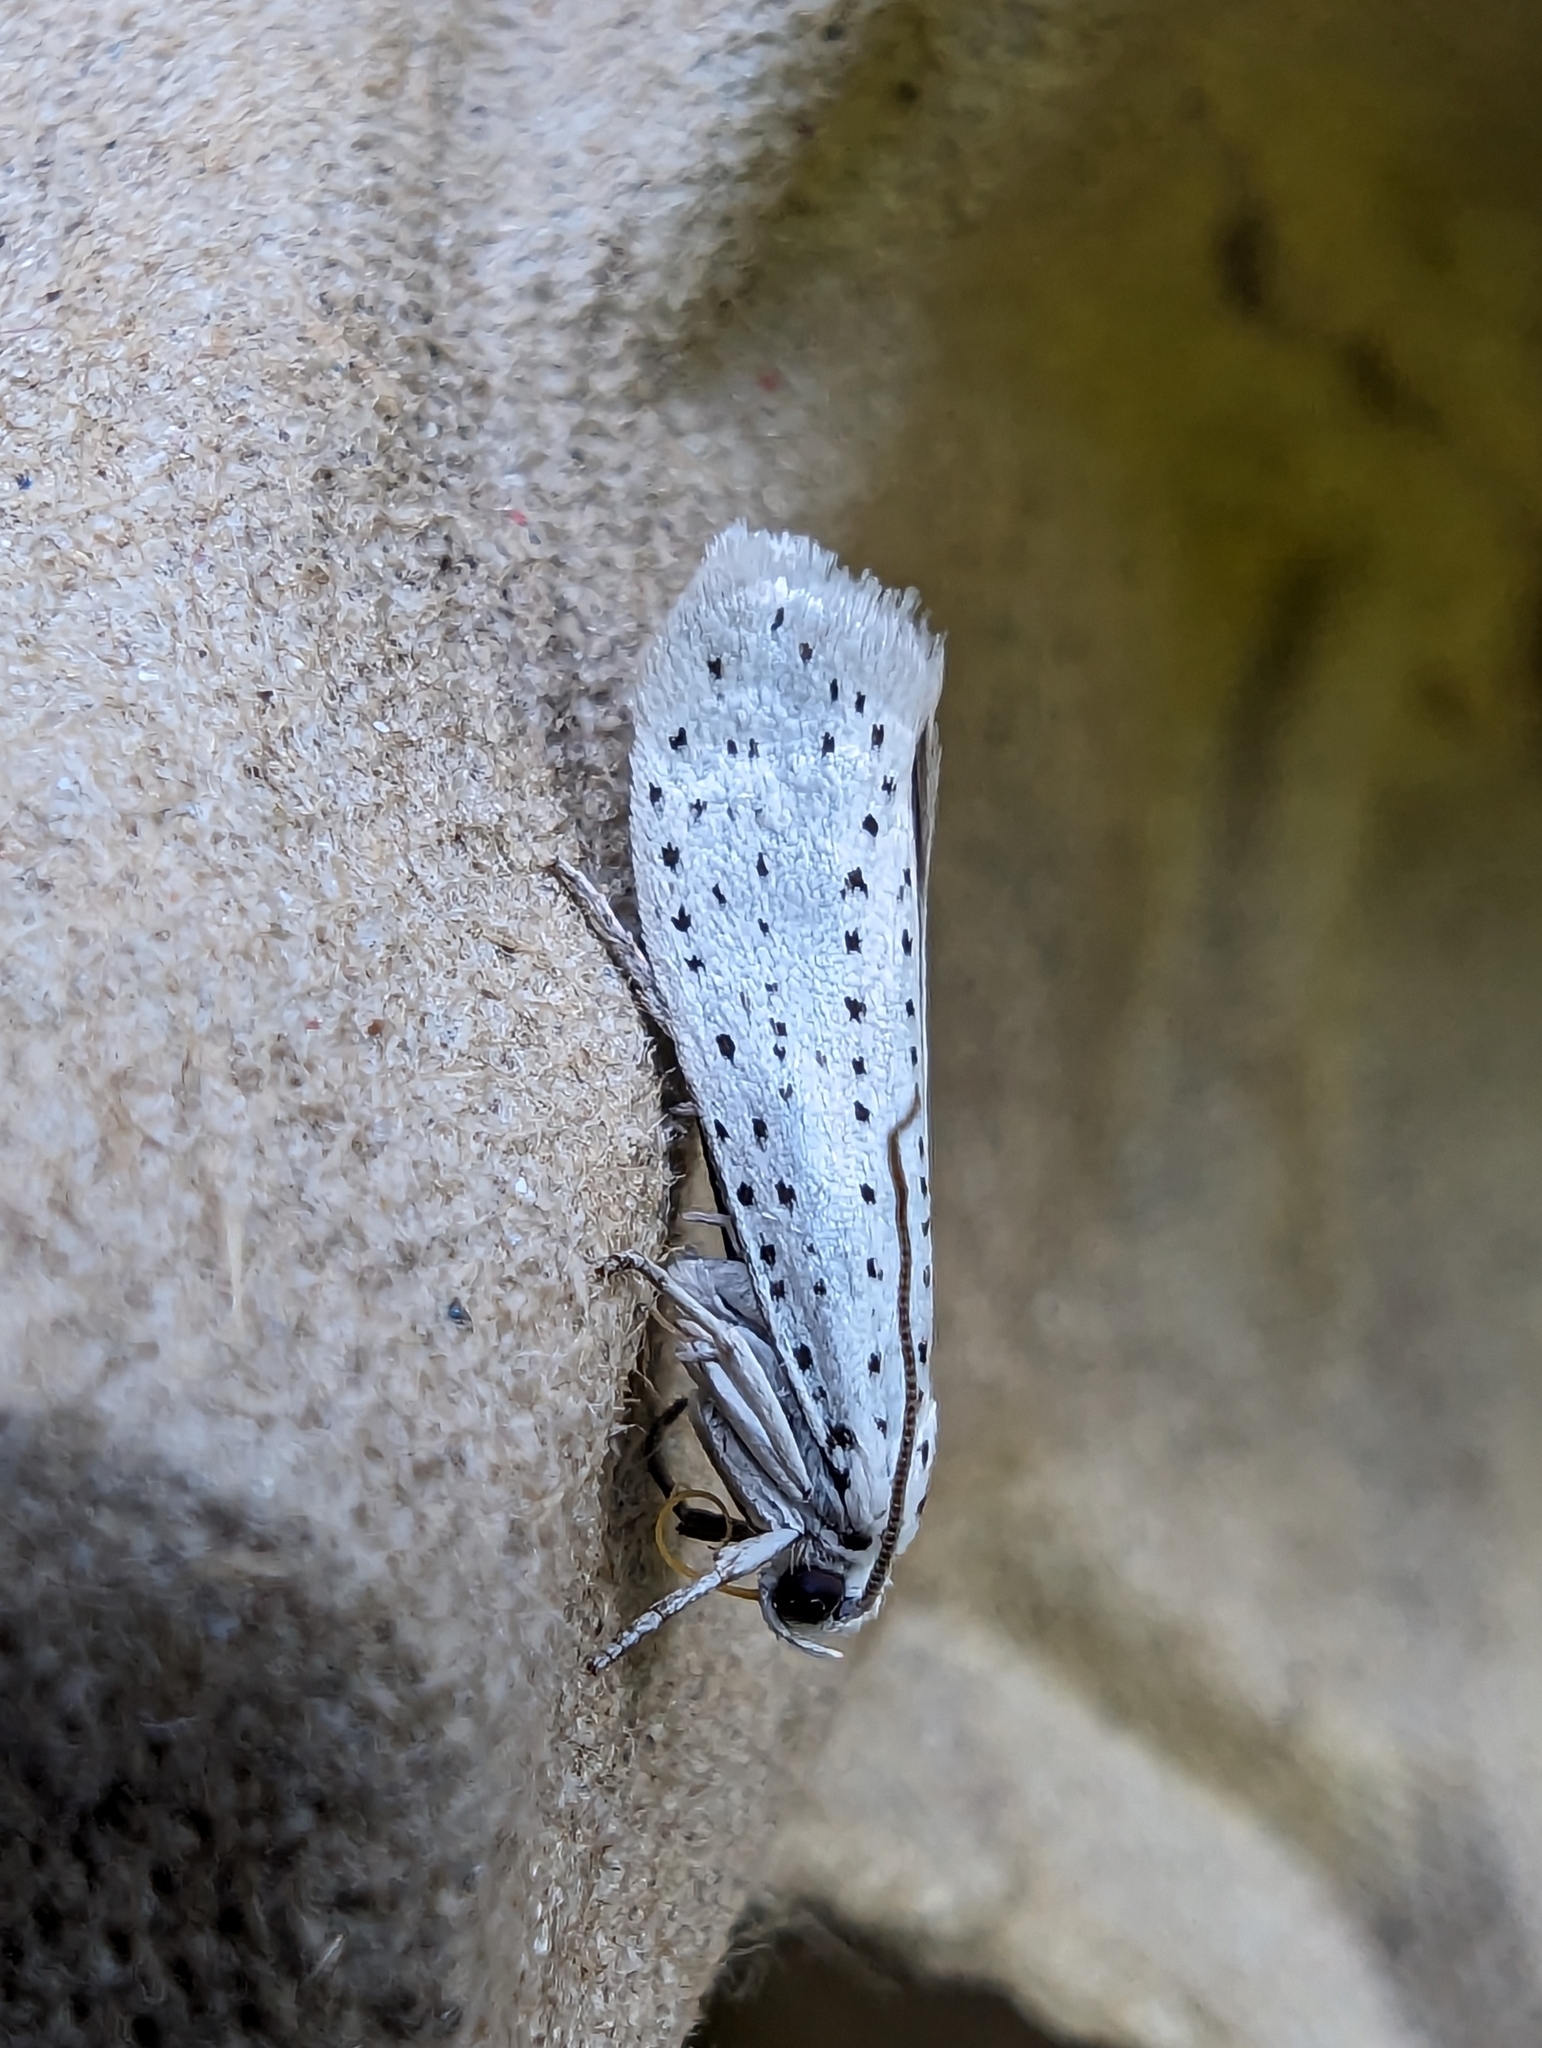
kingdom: Animalia
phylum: Arthropoda
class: Insecta
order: Lepidoptera
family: Yponomeutidae
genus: Yponomeuta
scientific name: Yponomeuta evonymella
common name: Bird-cherry ermine
